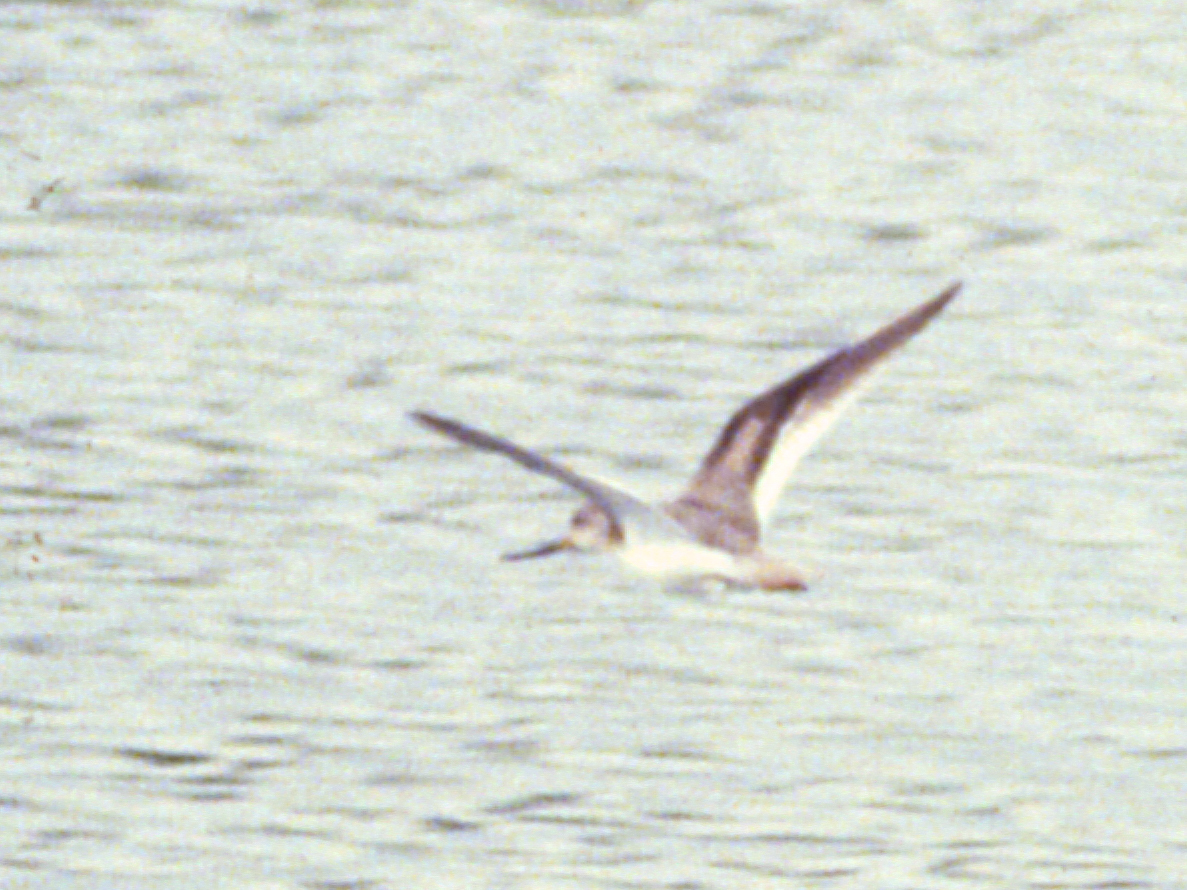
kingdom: Animalia
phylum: Chordata
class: Aves
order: Charadriiformes
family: Scolopacidae
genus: Xenus
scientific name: Xenus cinereus
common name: Terek sandpiper
